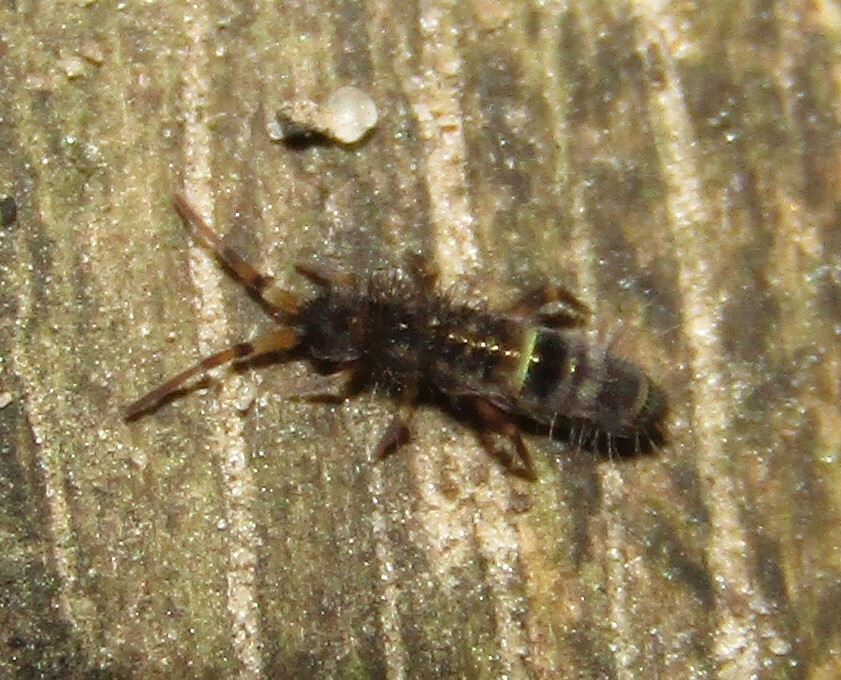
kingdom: Animalia
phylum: Arthropoda
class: Collembola
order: Entomobryomorpha
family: Orchesellidae
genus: Orchesella
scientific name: Orchesella cincta
